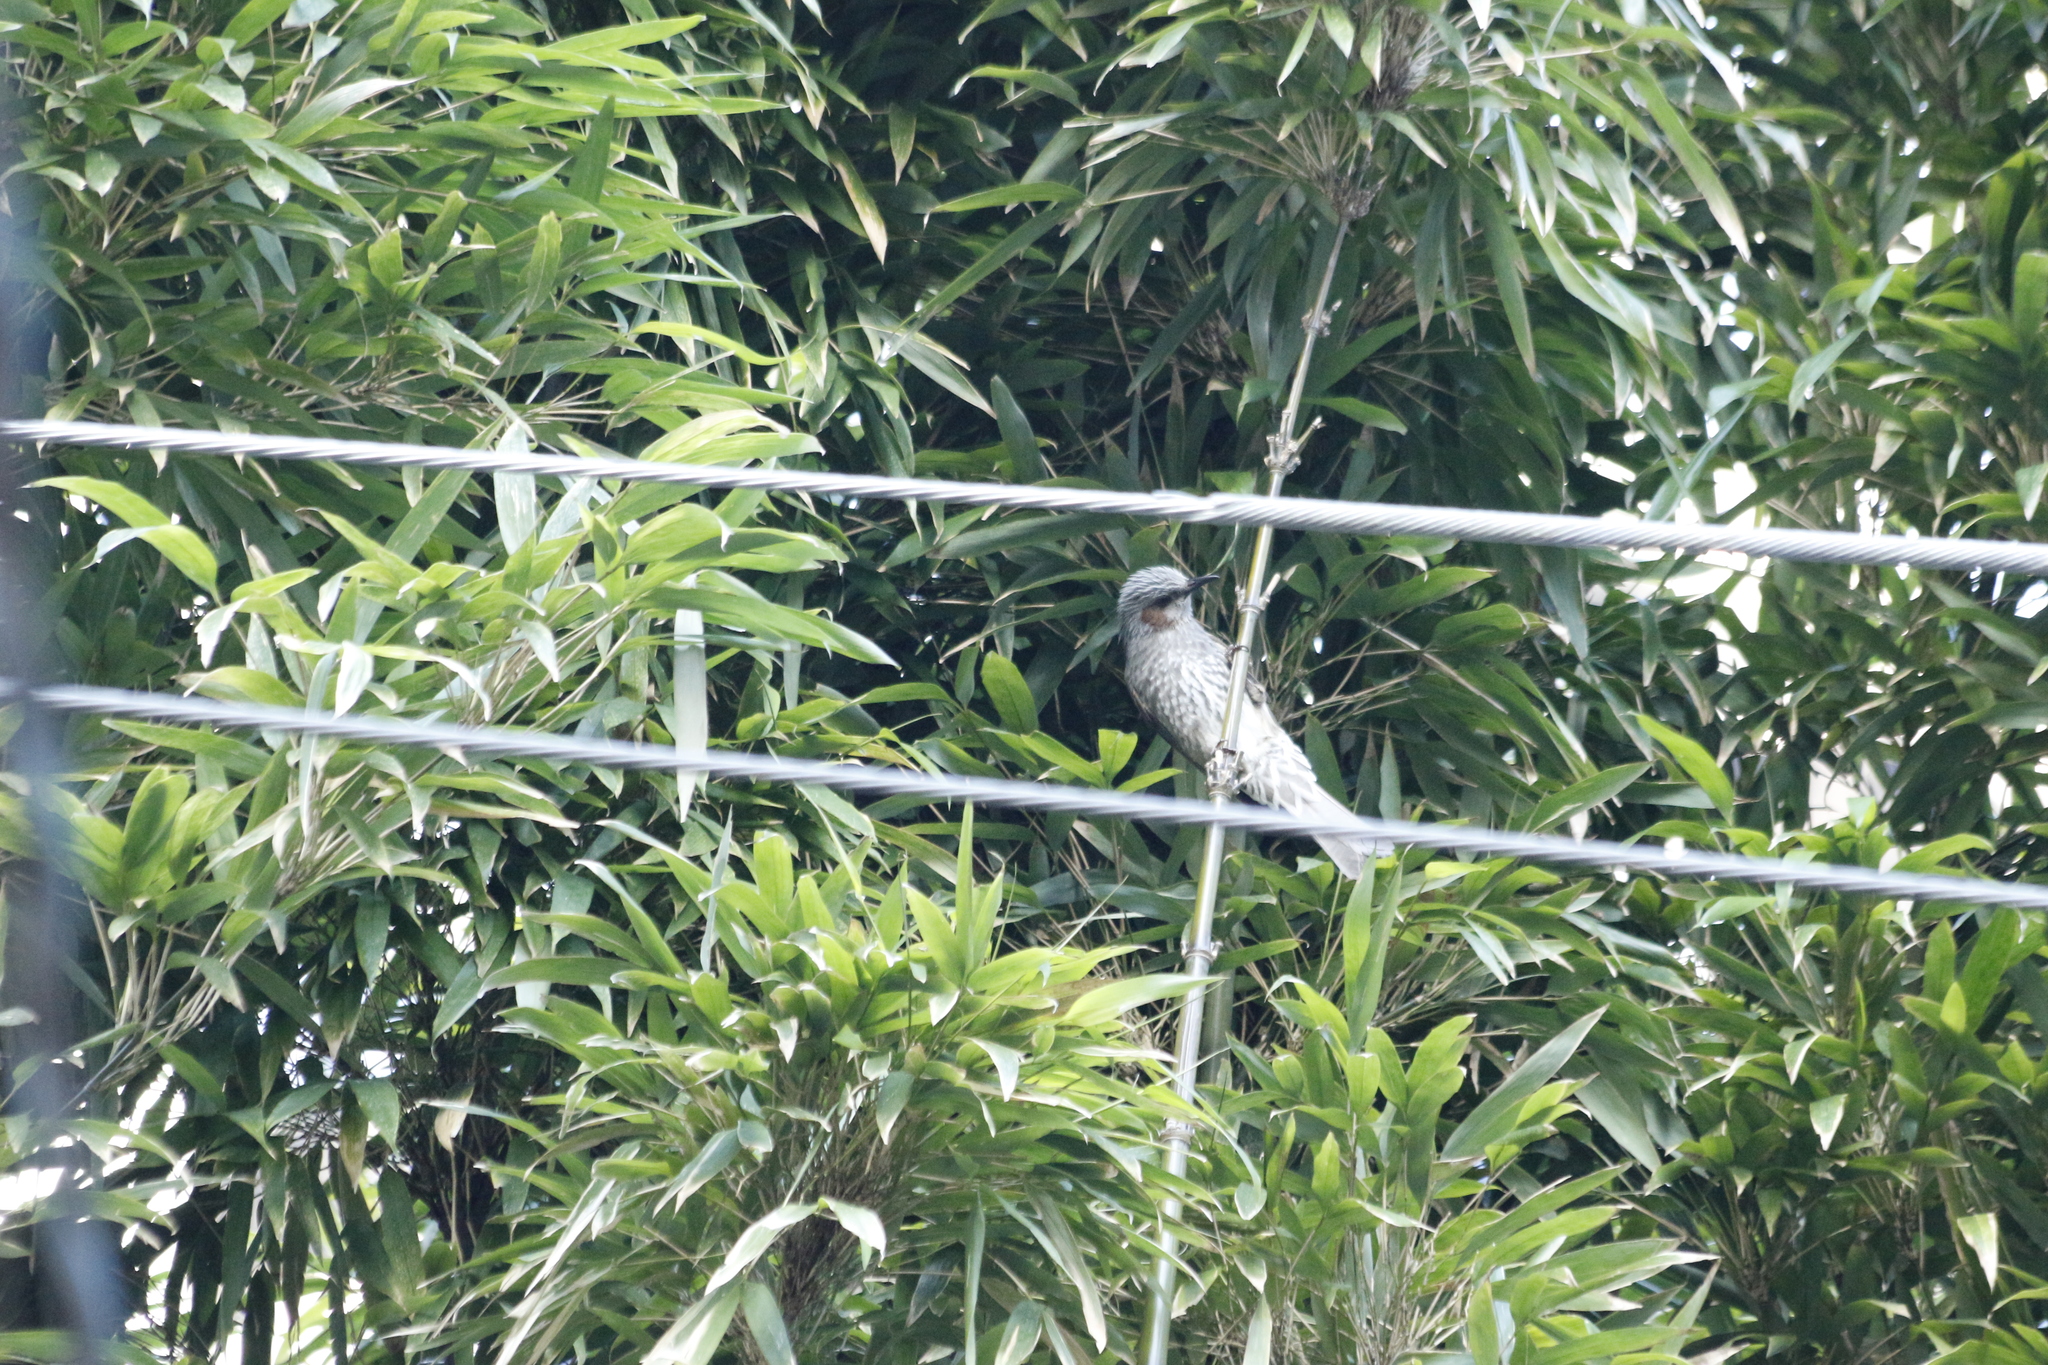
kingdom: Animalia
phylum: Chordata
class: Aves
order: Passeriformes
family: Pycnonotidae
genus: Hypsipetes
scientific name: Hypsipetes amaurotis
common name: Brown-eared bulbul
